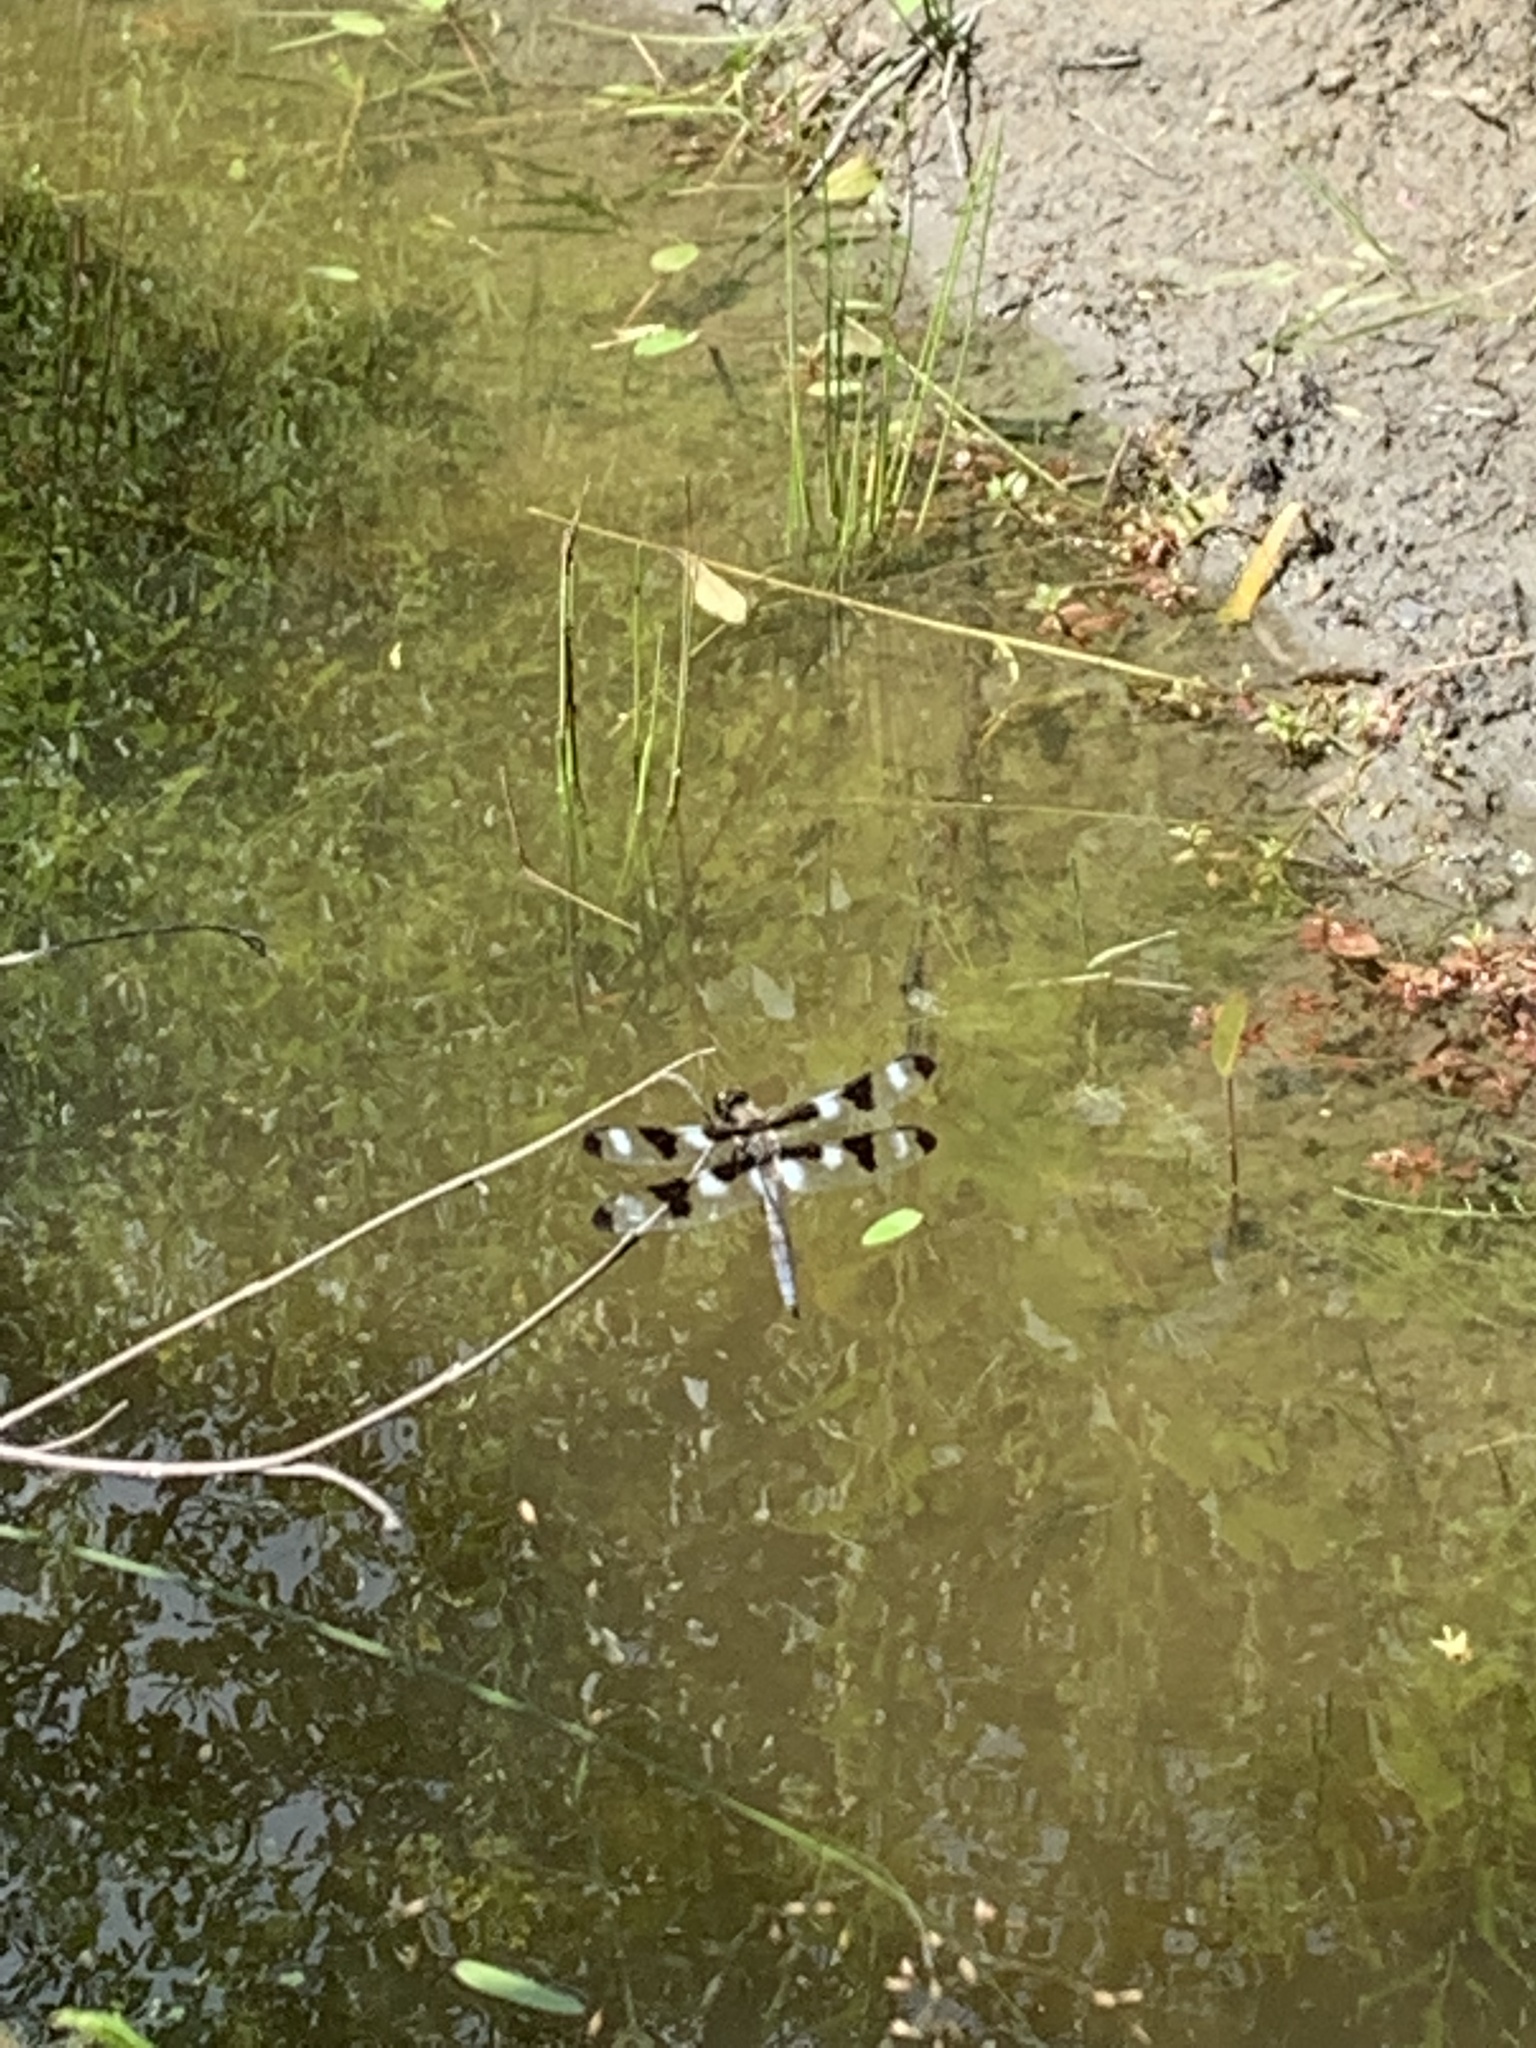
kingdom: Animalia
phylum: Arthropoda
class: Insecta
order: Odonata
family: Libellulidae
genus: Libellula
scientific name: Libellula pulchella
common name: Twelve-spotted skimmer
